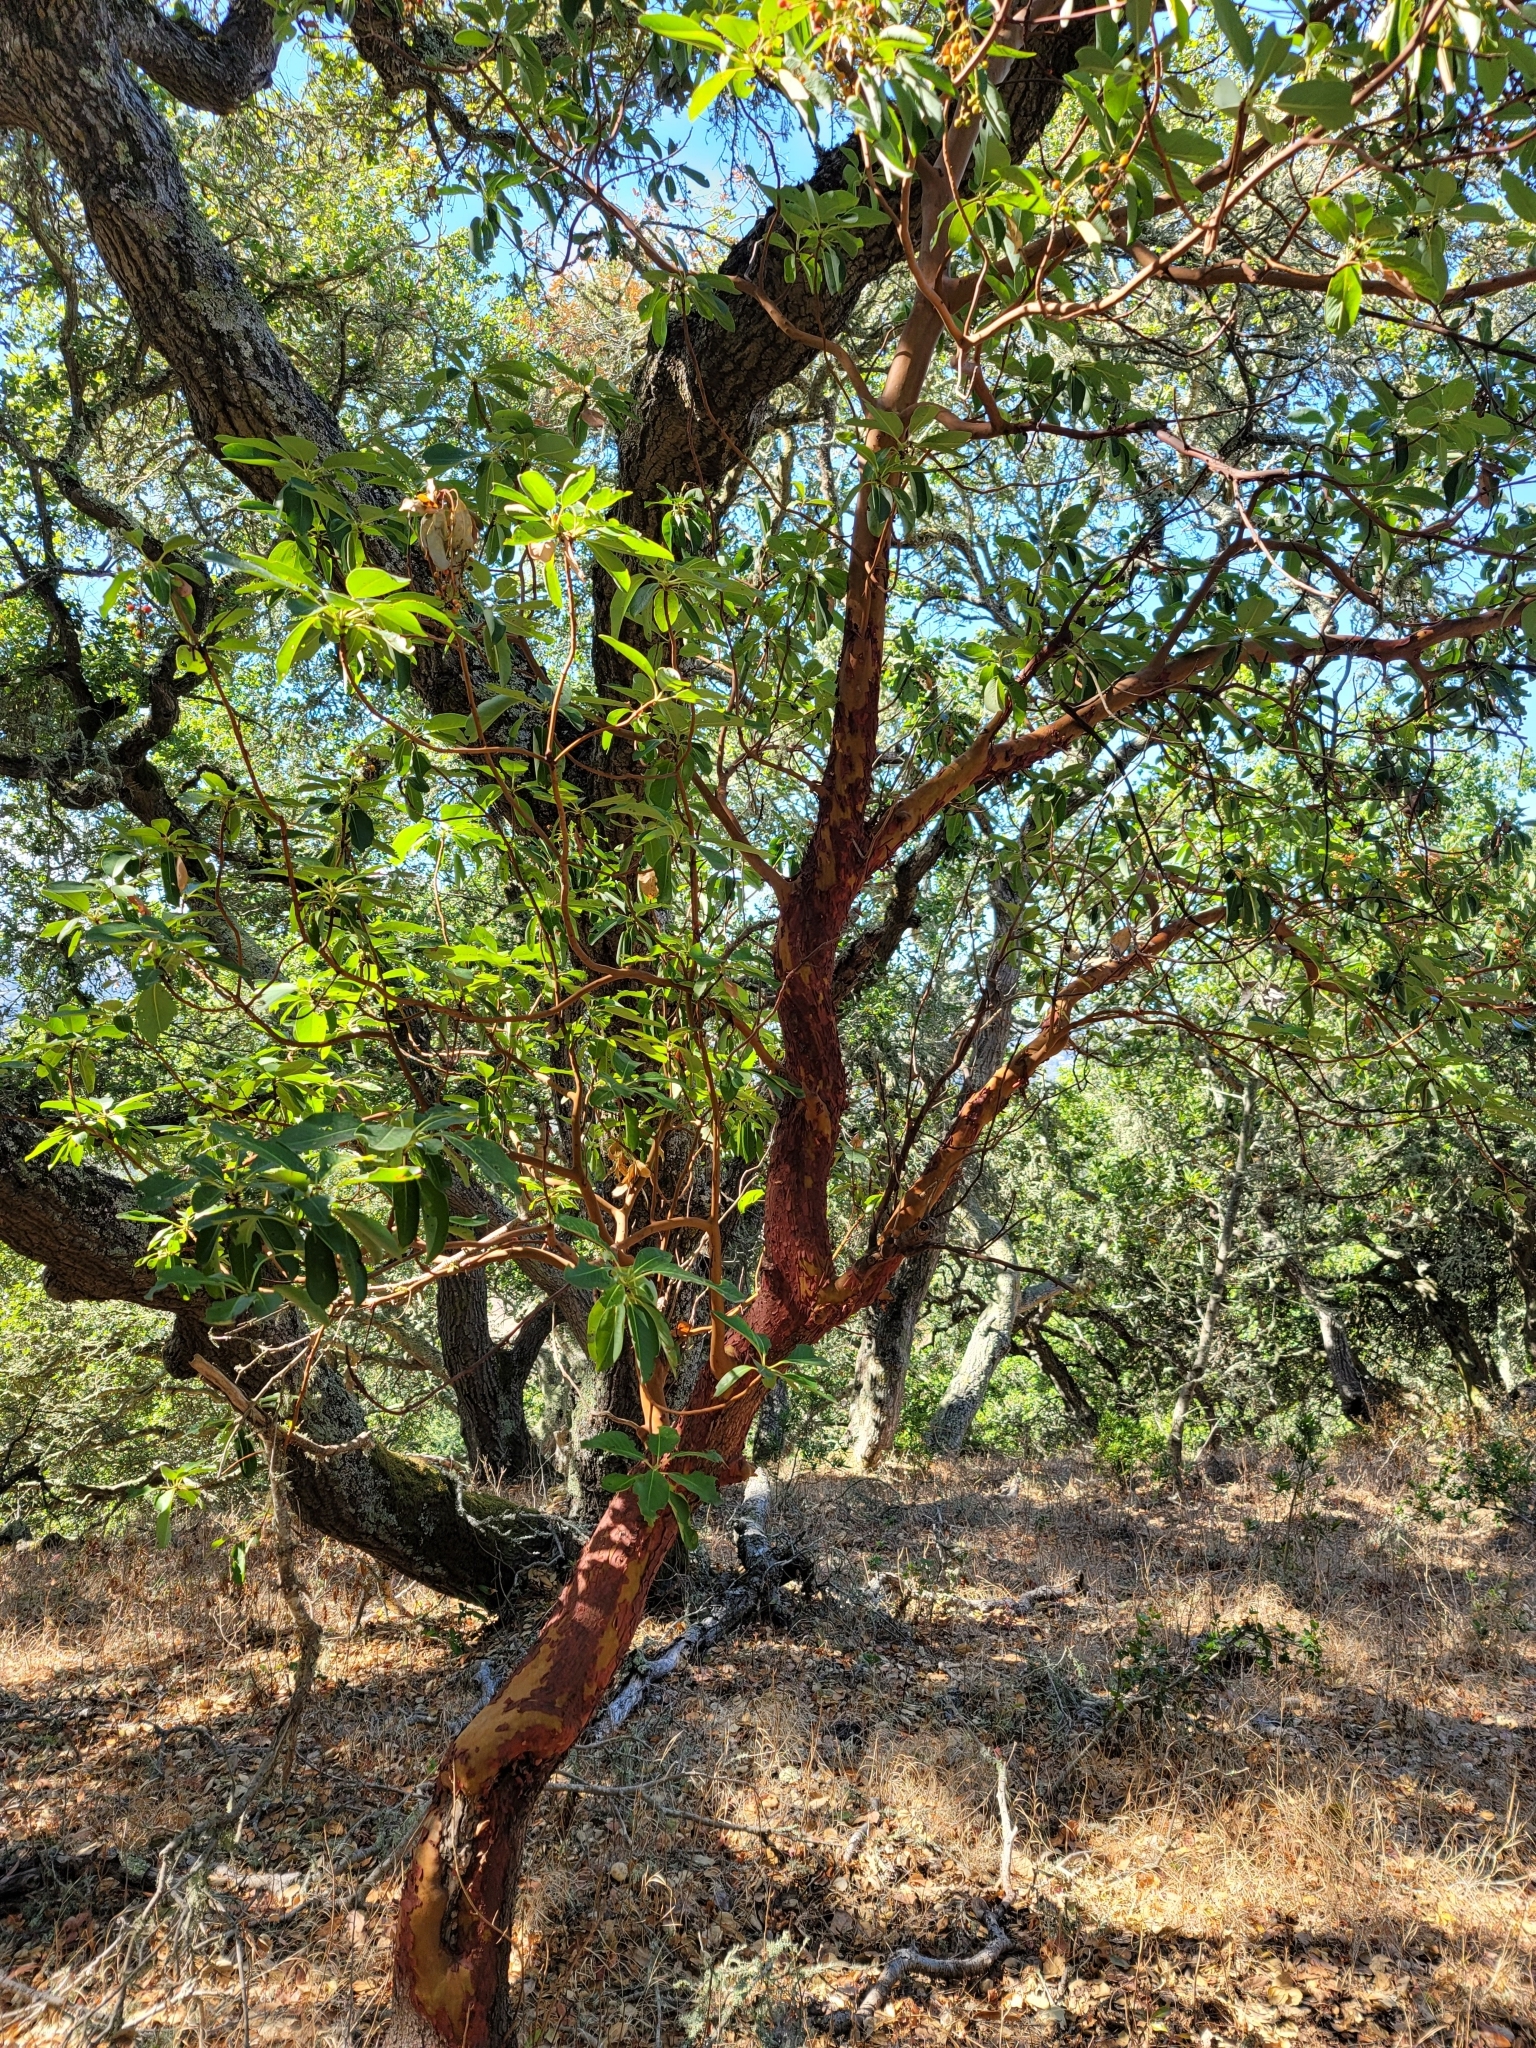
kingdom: Plantae
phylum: Tracheophyta
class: Magnoliopsida
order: Ericales
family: Ericaceae
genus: Arbutus
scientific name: Arbutus menziesii
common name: Pacific madrone
